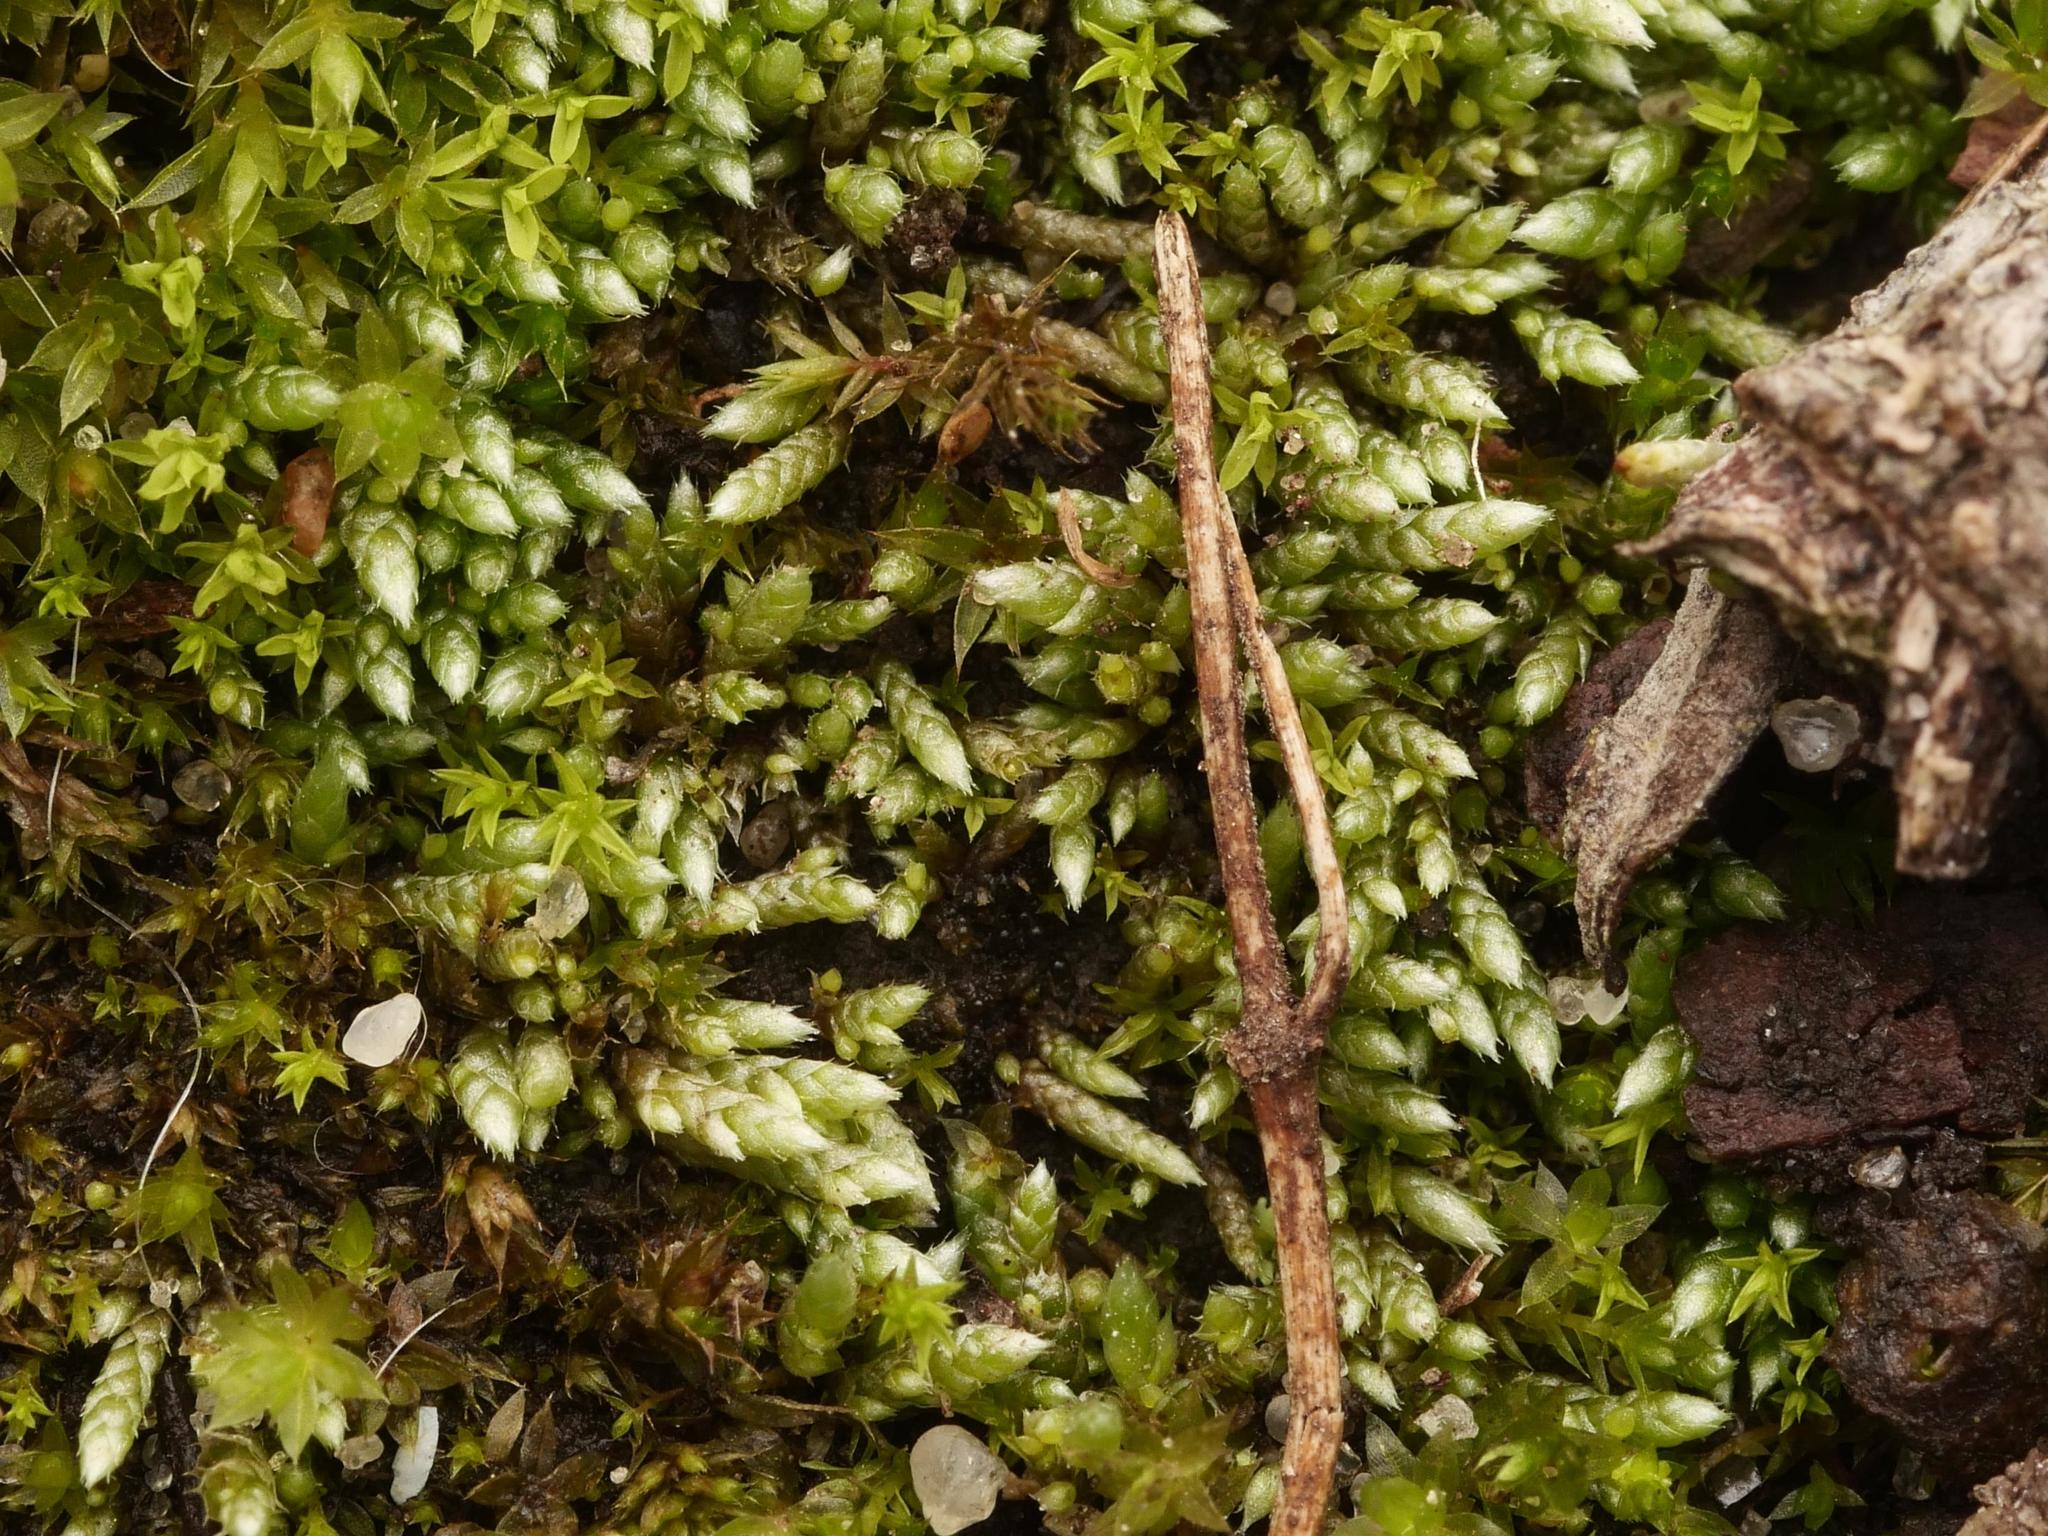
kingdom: Plantae
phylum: Bryophyta
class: Bryopsida
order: Bryales
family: Bryaceae
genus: Bryum
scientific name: Bryum argenteum
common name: Silver-moss
